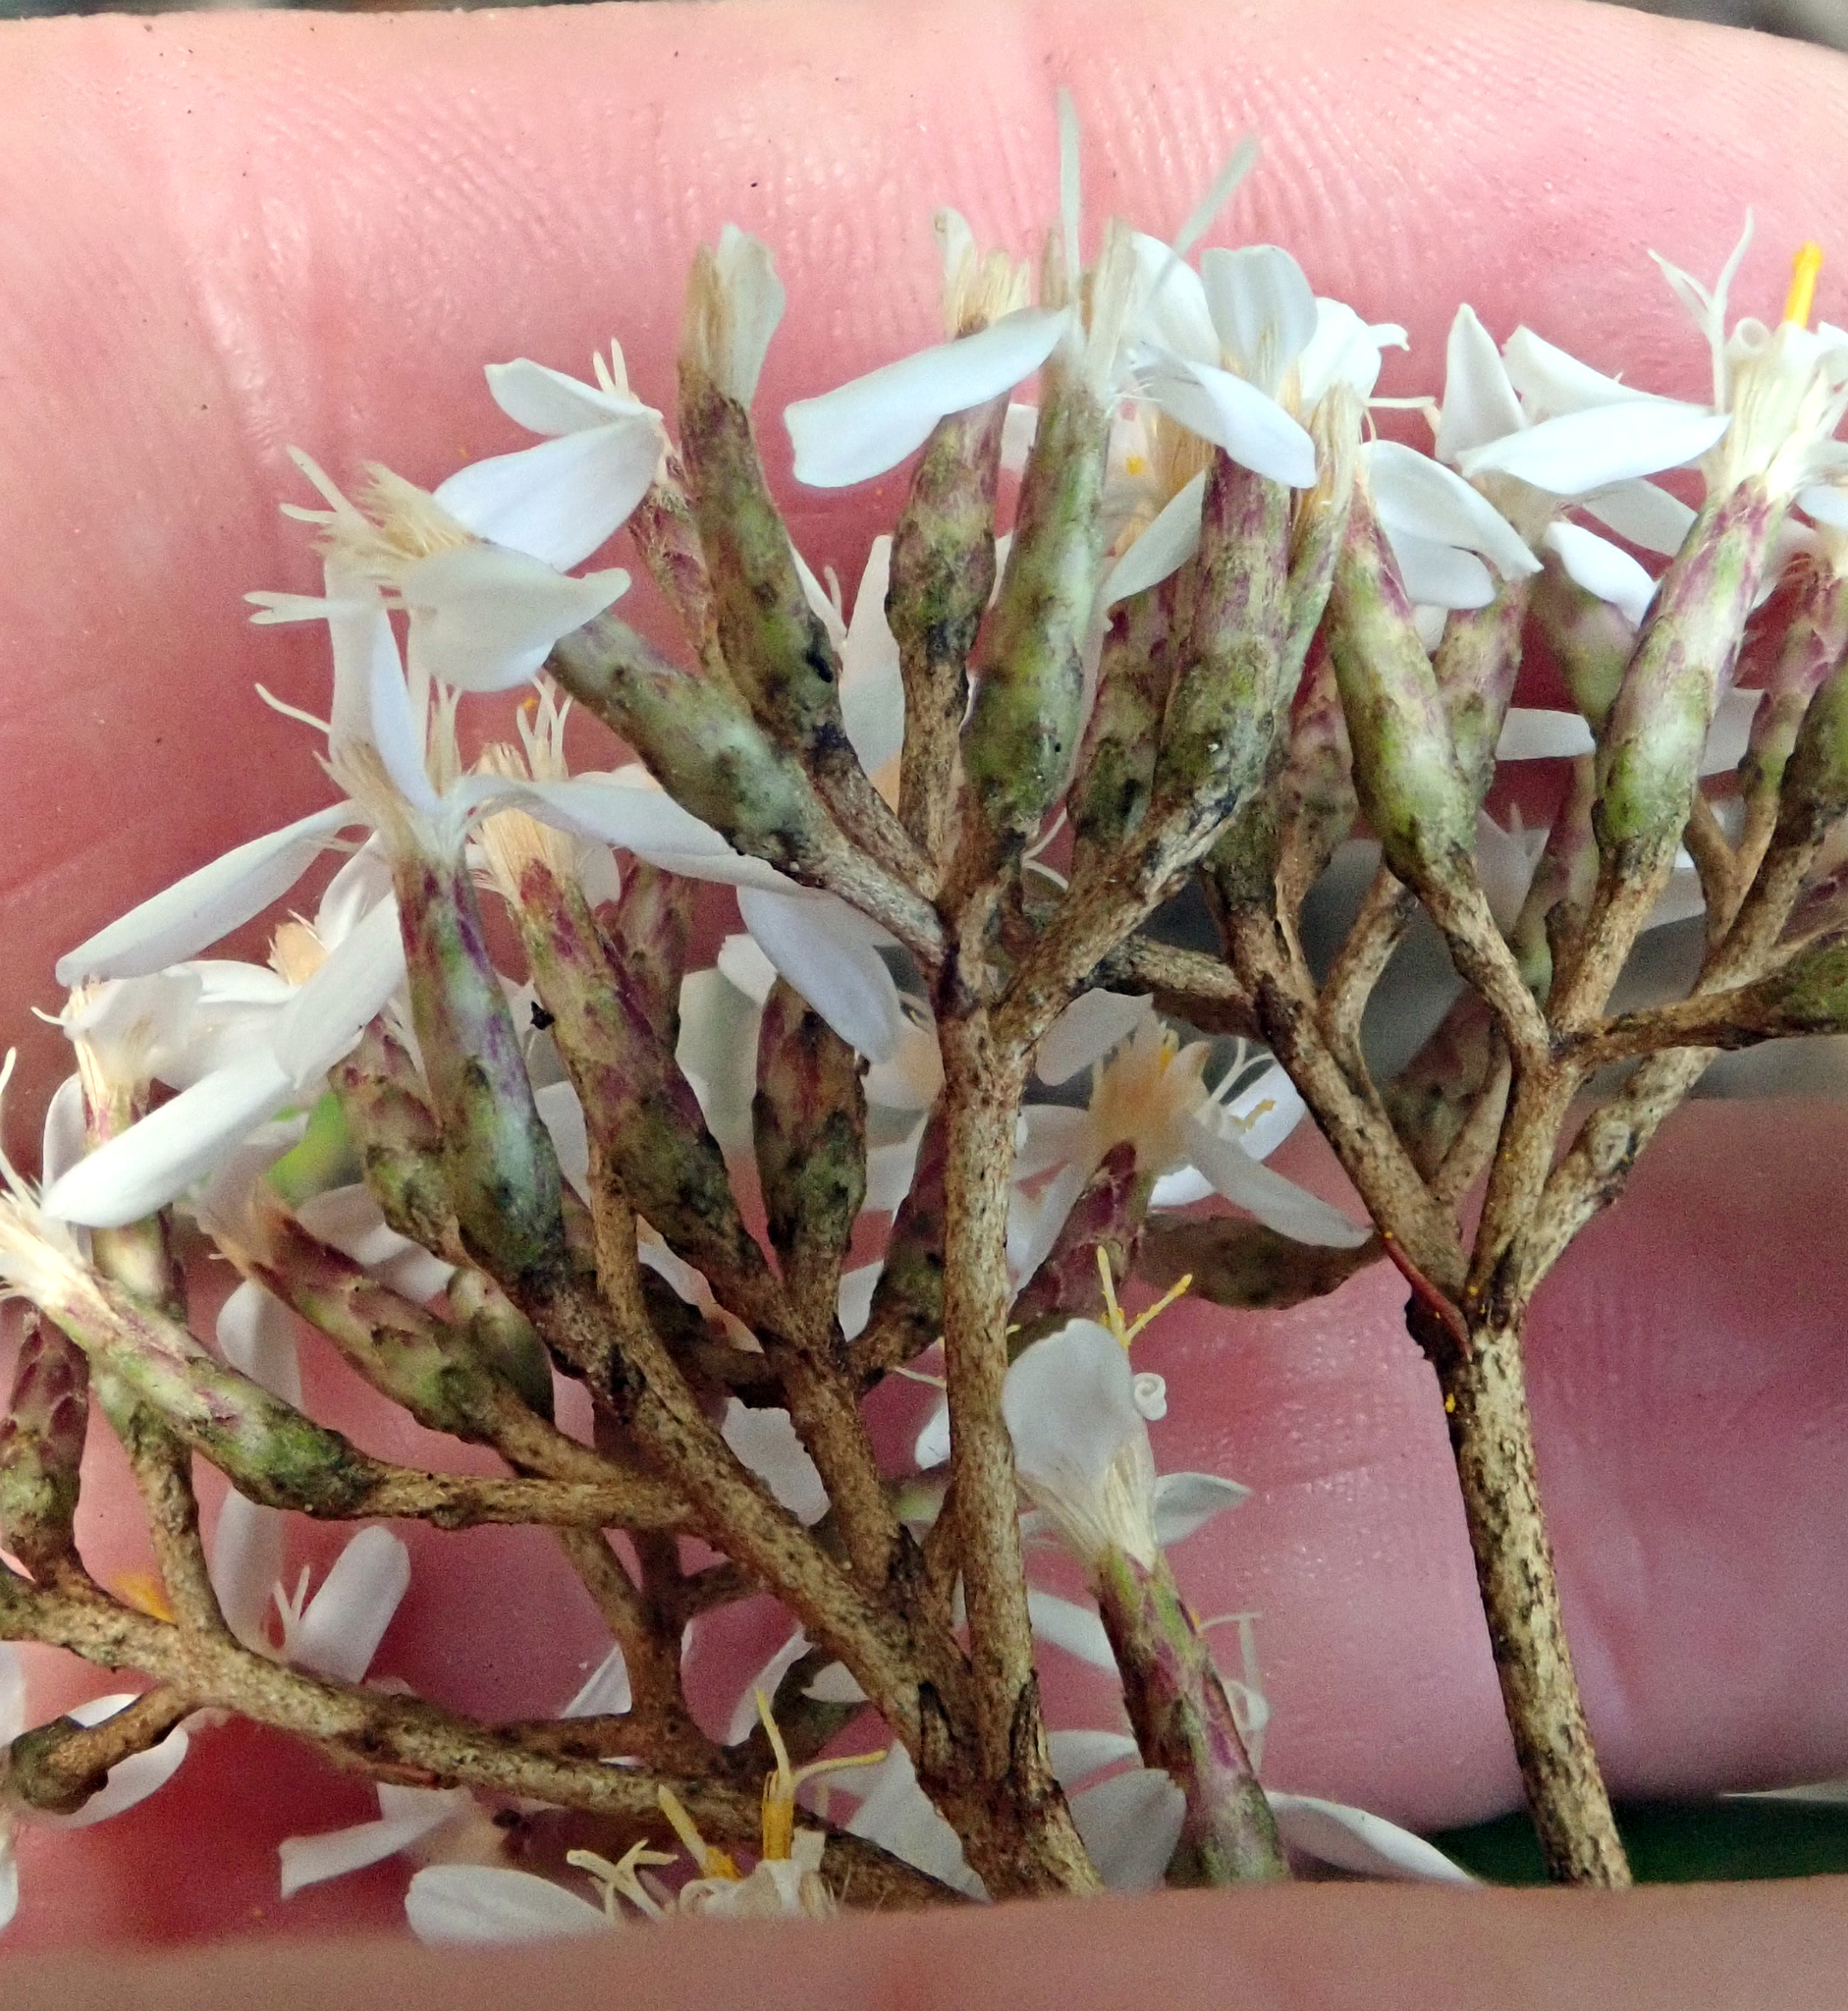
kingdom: Plantae
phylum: Tracheophyta
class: Magnoliopsida
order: Asterales
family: Asteraceae
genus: Olearia
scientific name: Olearia furfuracea
